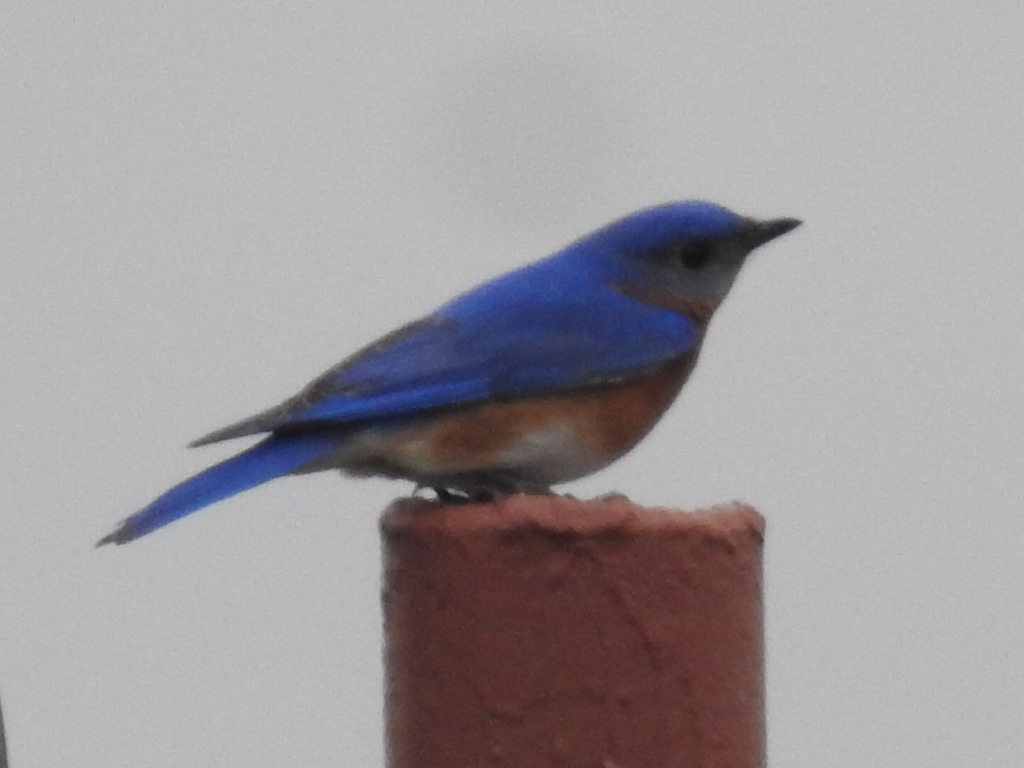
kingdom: Animalia
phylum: Chordata
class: Aves
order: Passeriformes
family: Turdidae
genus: Sialia
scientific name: Sialia sialis
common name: Eastern bluebird
